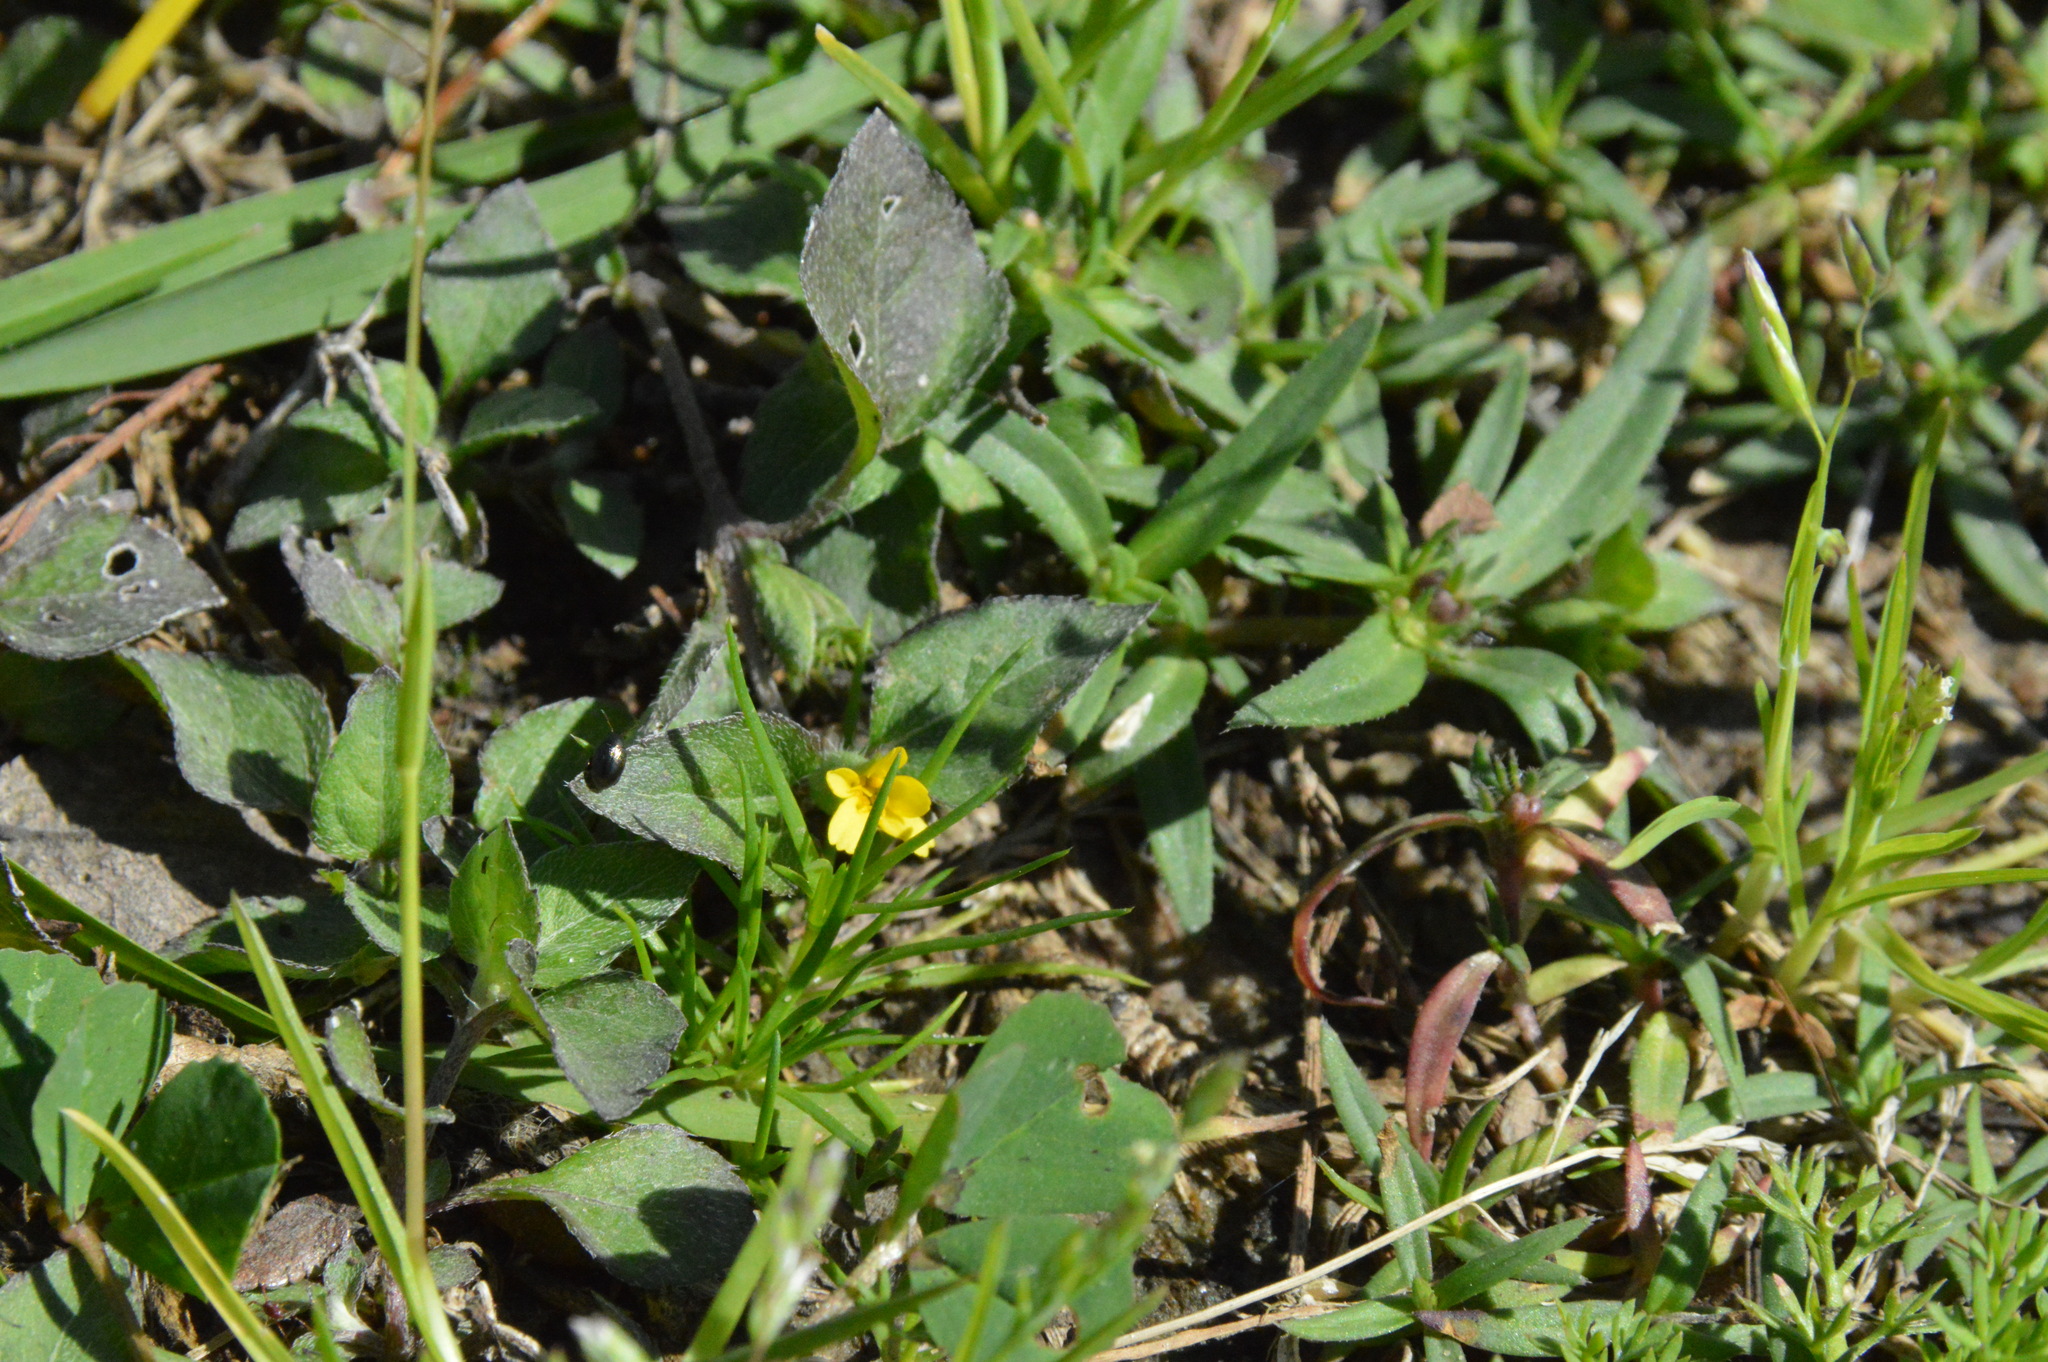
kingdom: Plantae
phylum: Tracheophyta
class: Magnoliopsida
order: Asterales
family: Asteraceae
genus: Calyptocarpus
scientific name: Calyptocarpus vialis
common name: Straggler daisy
